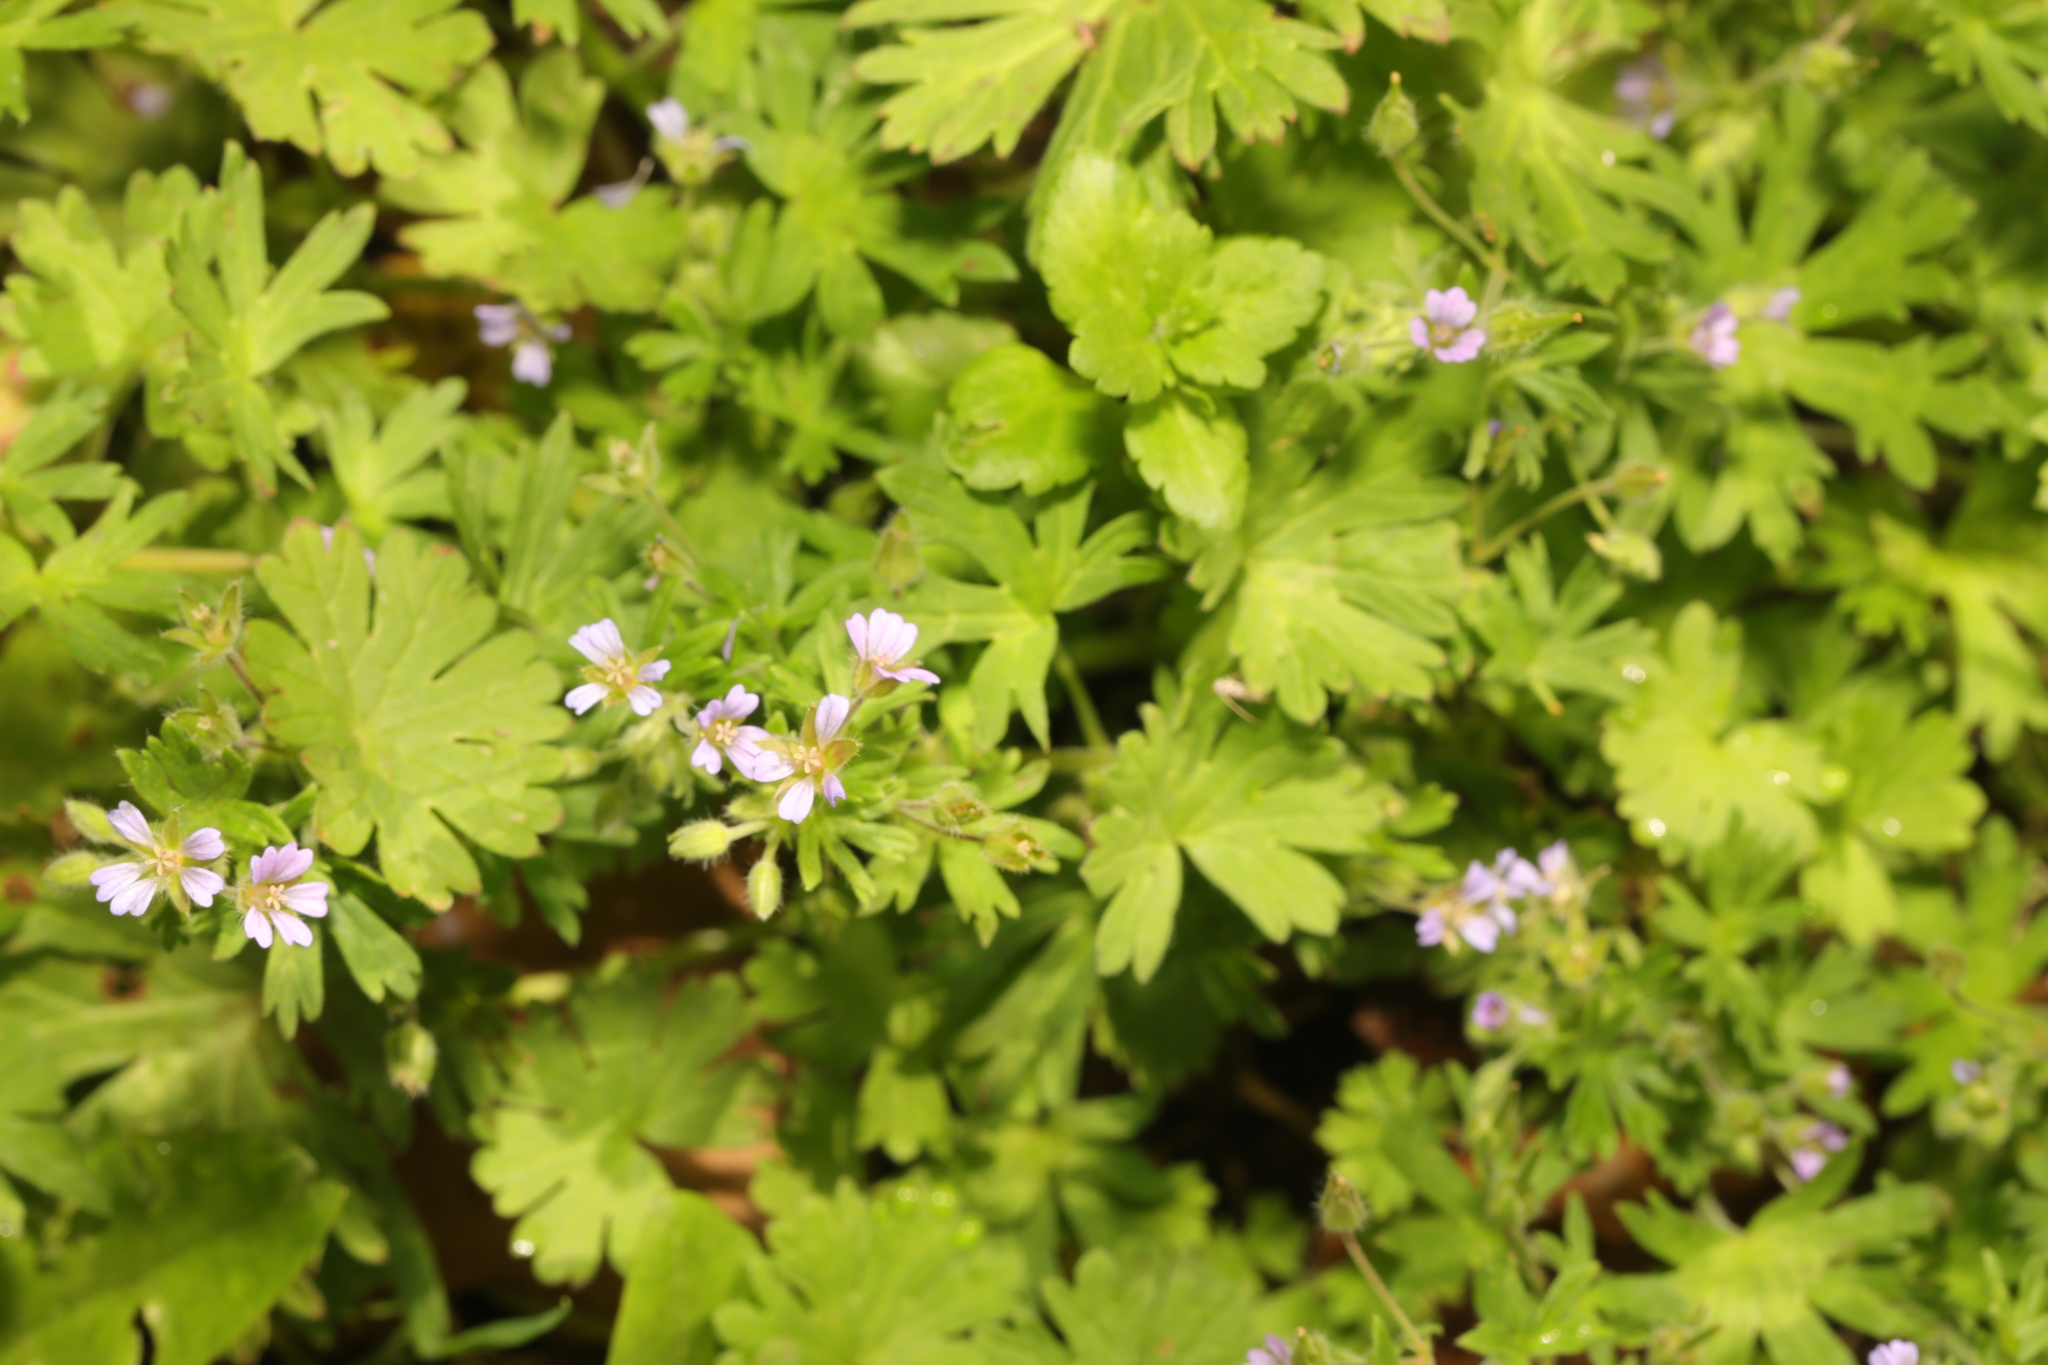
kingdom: Plantae
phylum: Tracheophyta
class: Magnoliopsida
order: Geraniales
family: Geraniaceae
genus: Geranium
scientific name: Geranium pusillum
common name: Small geranium
